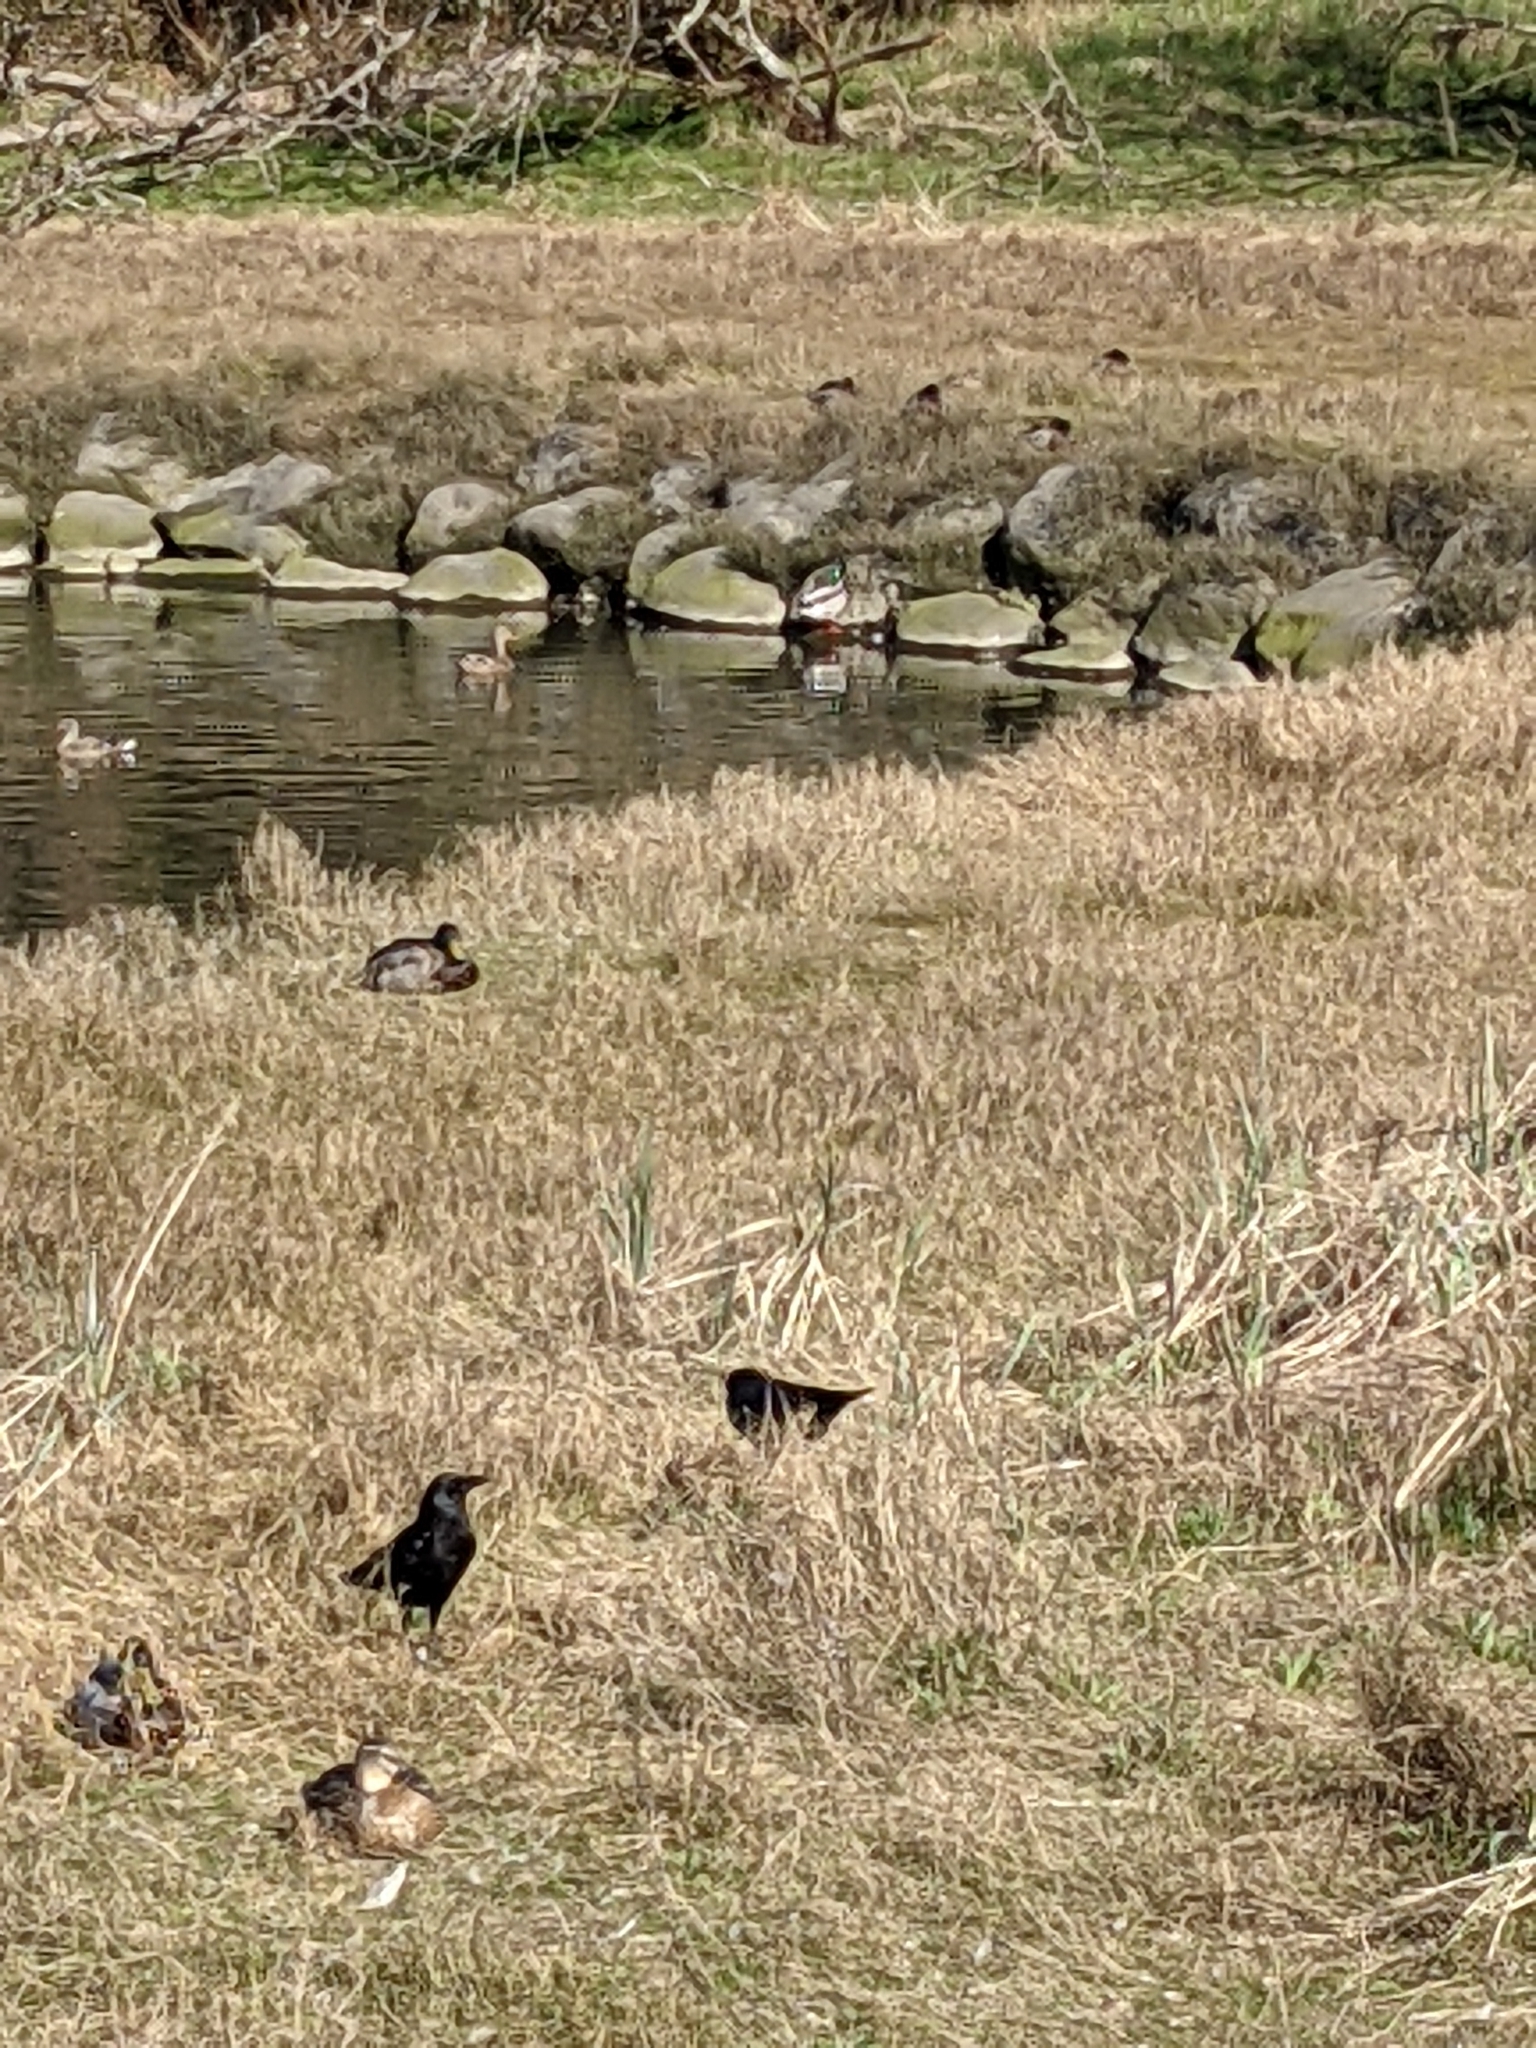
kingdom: Animalia
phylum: Chordata
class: Aves
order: Passeriformes
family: Corvidae
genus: Corvus
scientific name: Corvus brachyrhynchos
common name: American crow
